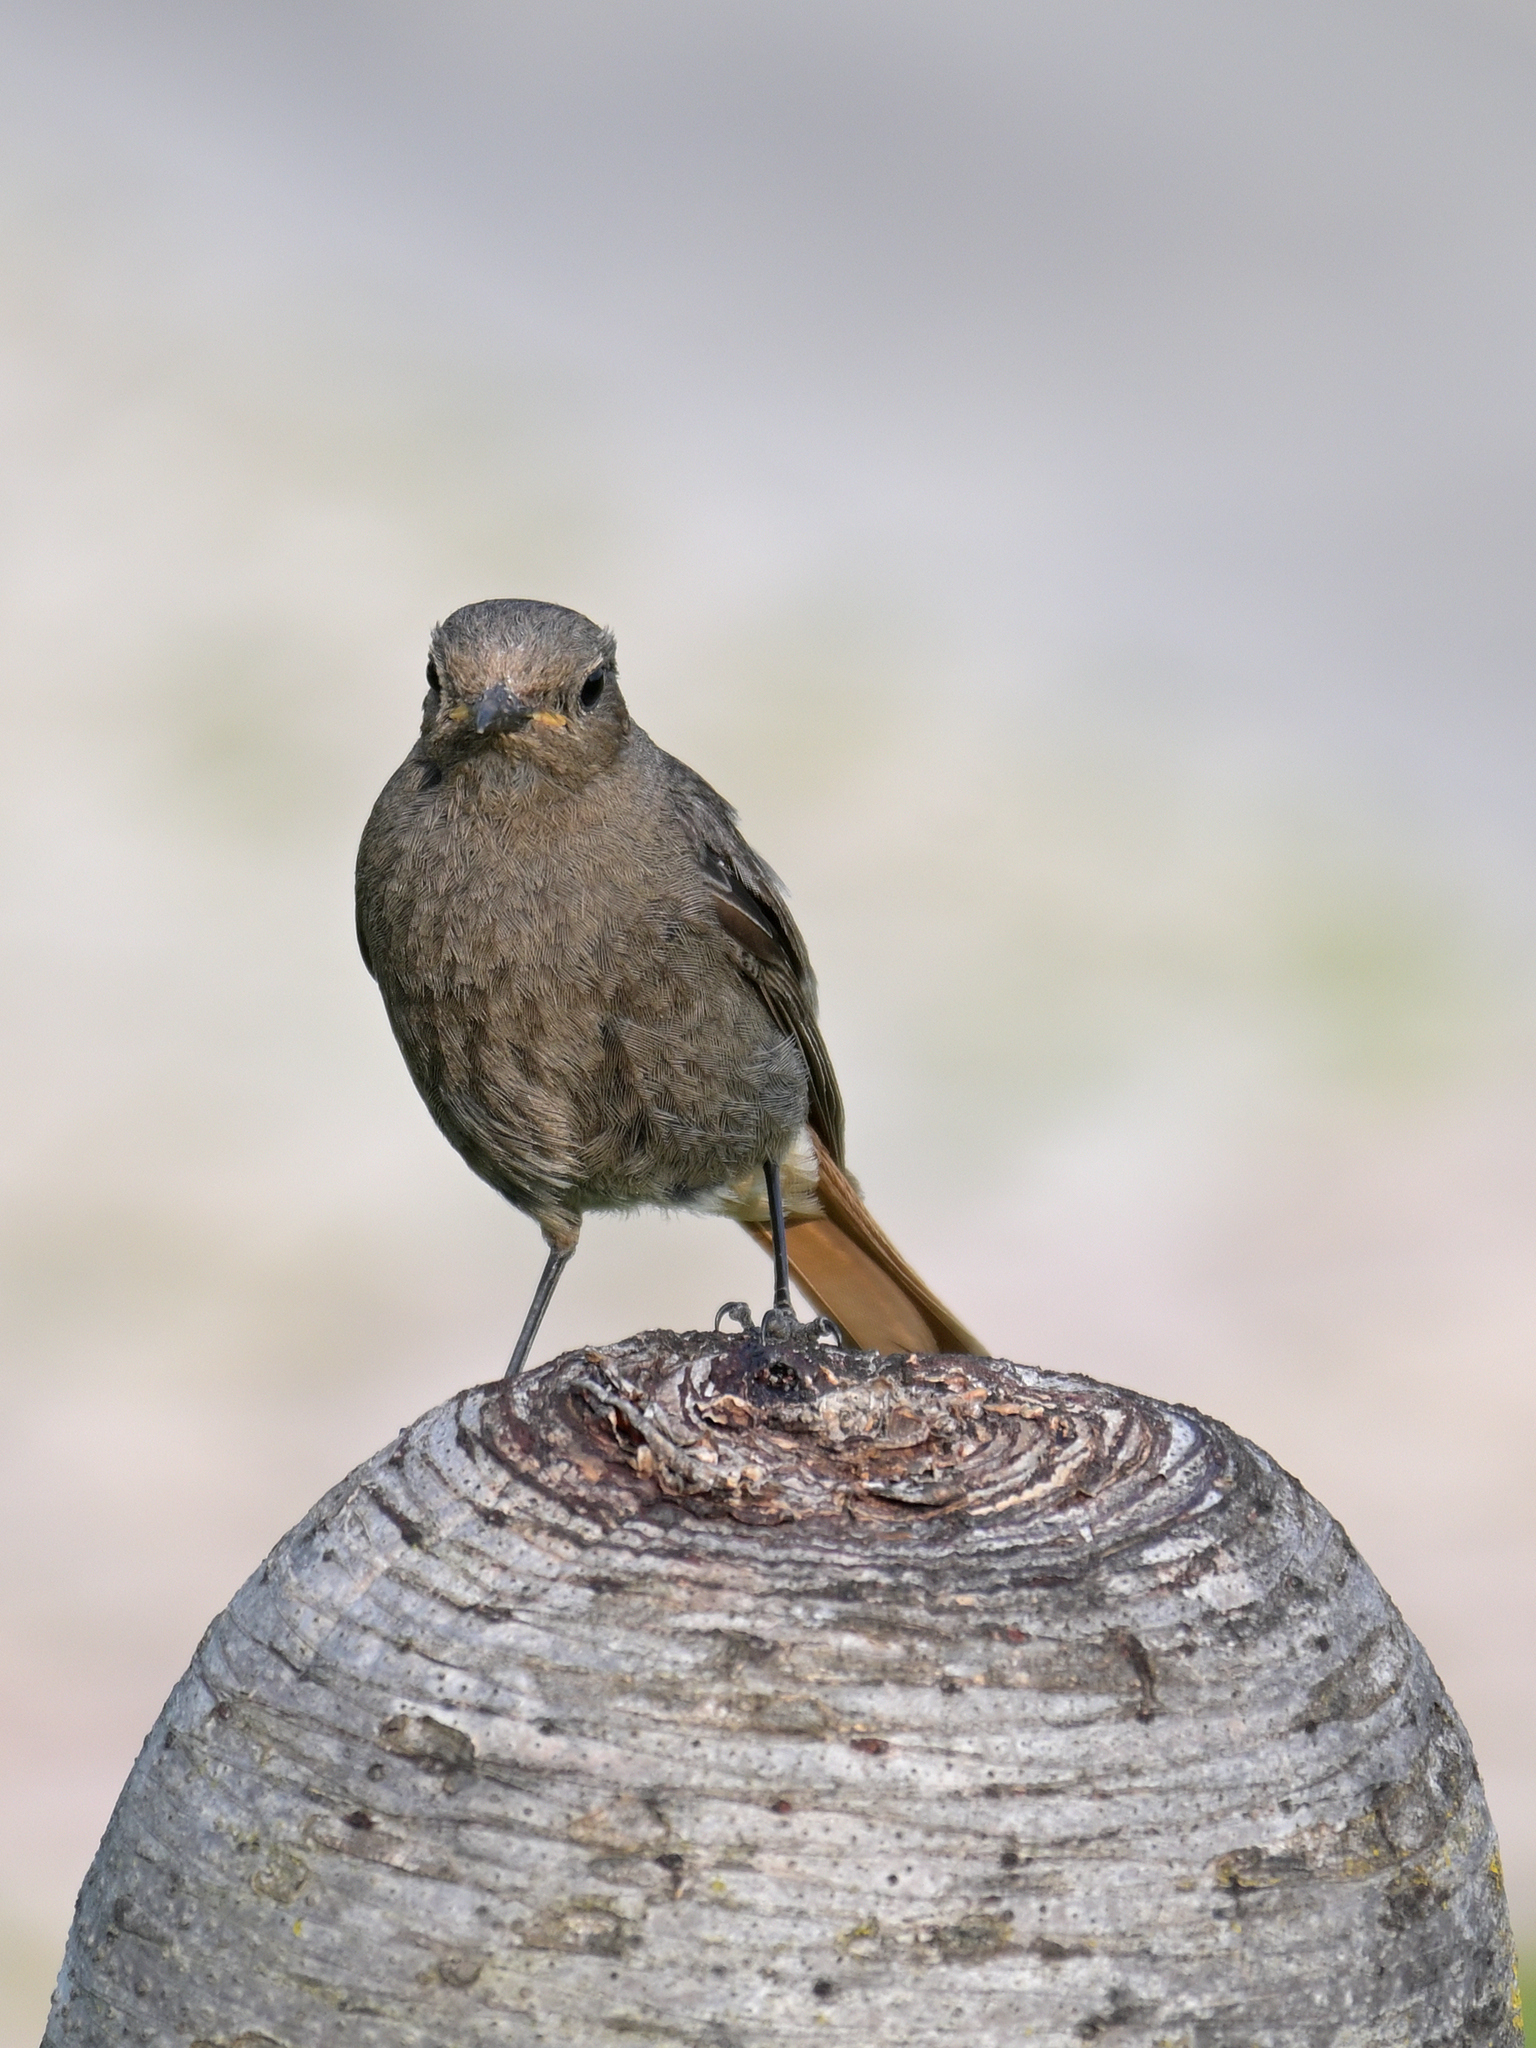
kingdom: Animalia
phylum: Chordata
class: Aves
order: Passeriformes
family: Muscicapidae
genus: Phoenicurus
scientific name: Phoenicurus ochruros
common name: Black redstart
